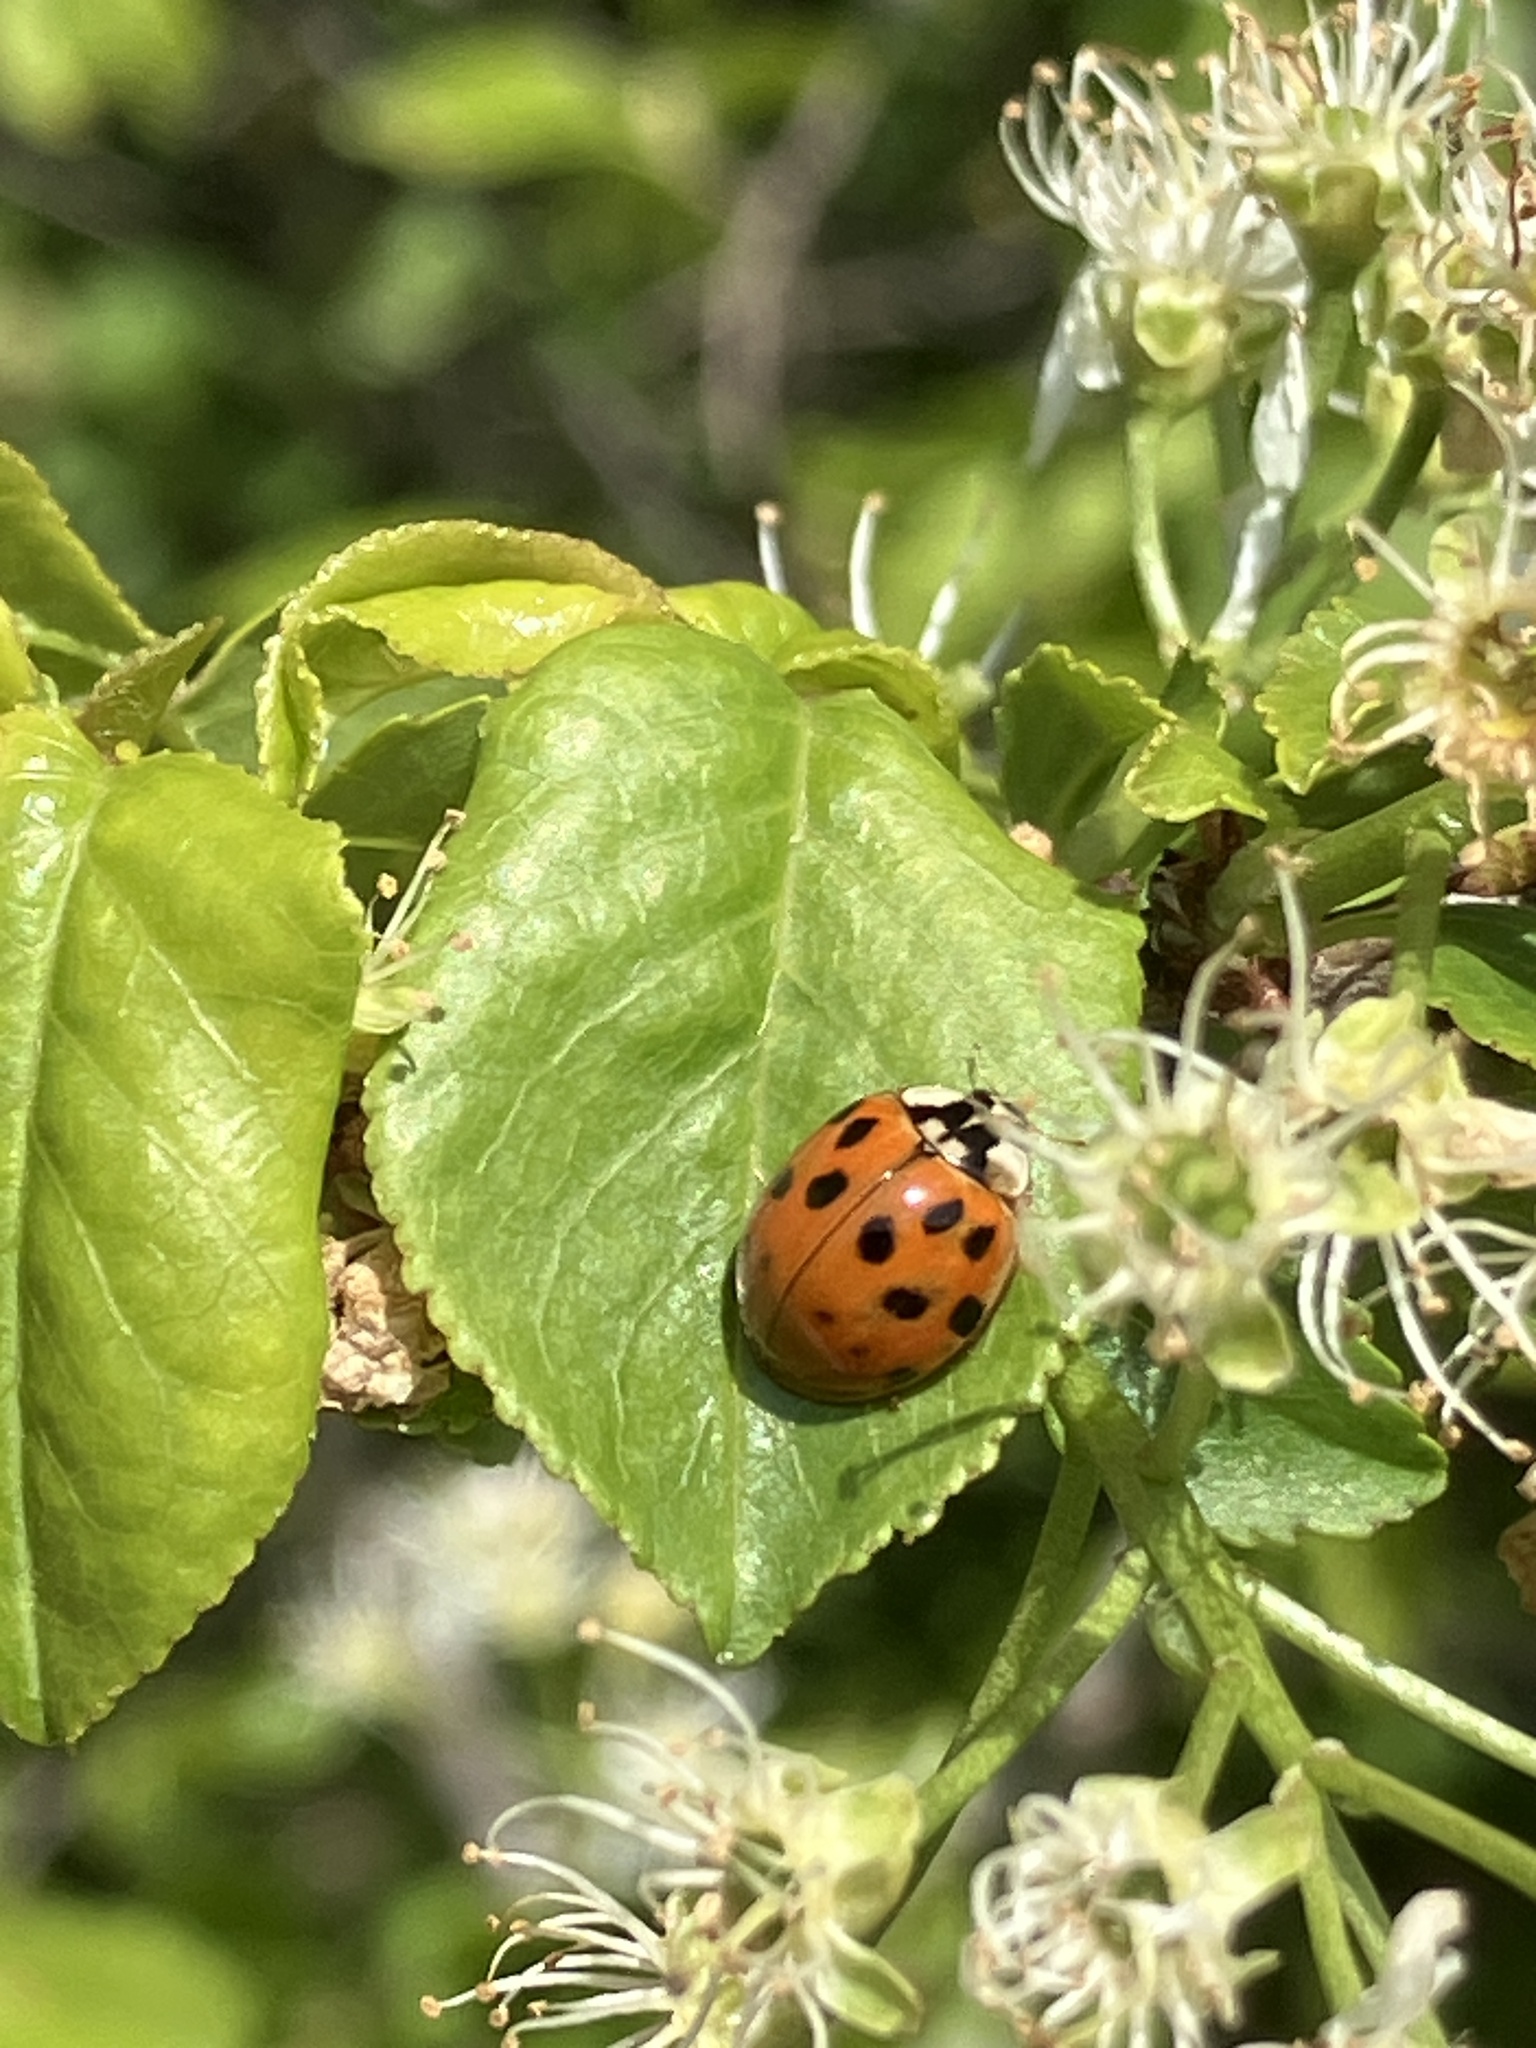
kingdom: Animalia
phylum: Arthropoda
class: Insecta
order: Coleoptera
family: Coccinellidae
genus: Harmonia
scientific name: Harmonia axyridis
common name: Harlequin ladybird
